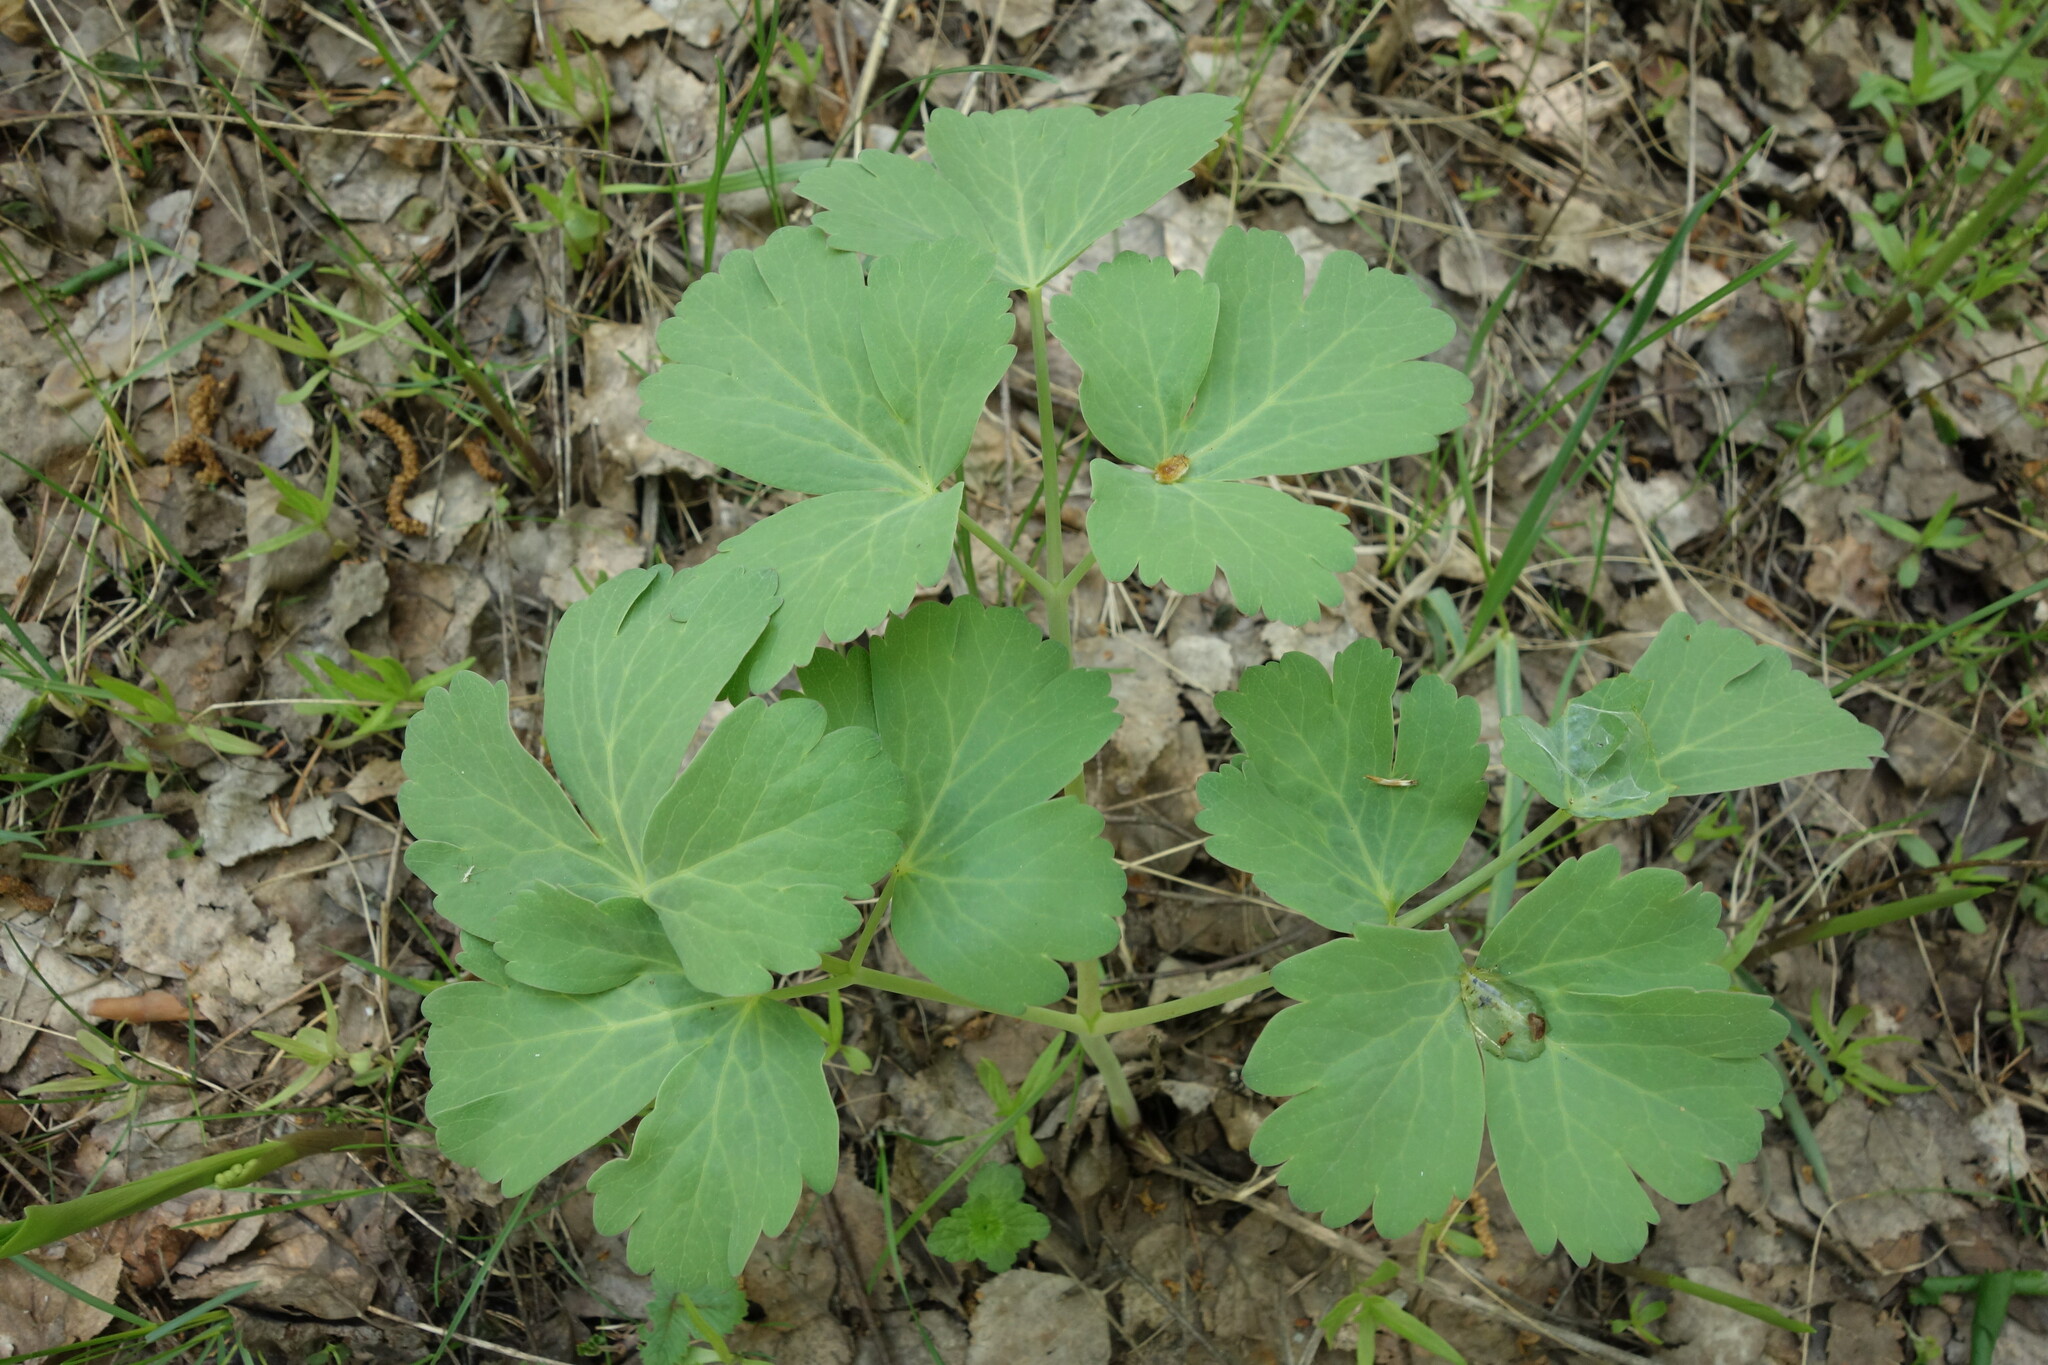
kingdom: Plantae
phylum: Tracheophyta
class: Magnoliopsida
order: Apiales
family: Apiaceae
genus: Laser
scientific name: Laser trilobum
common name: Laser
